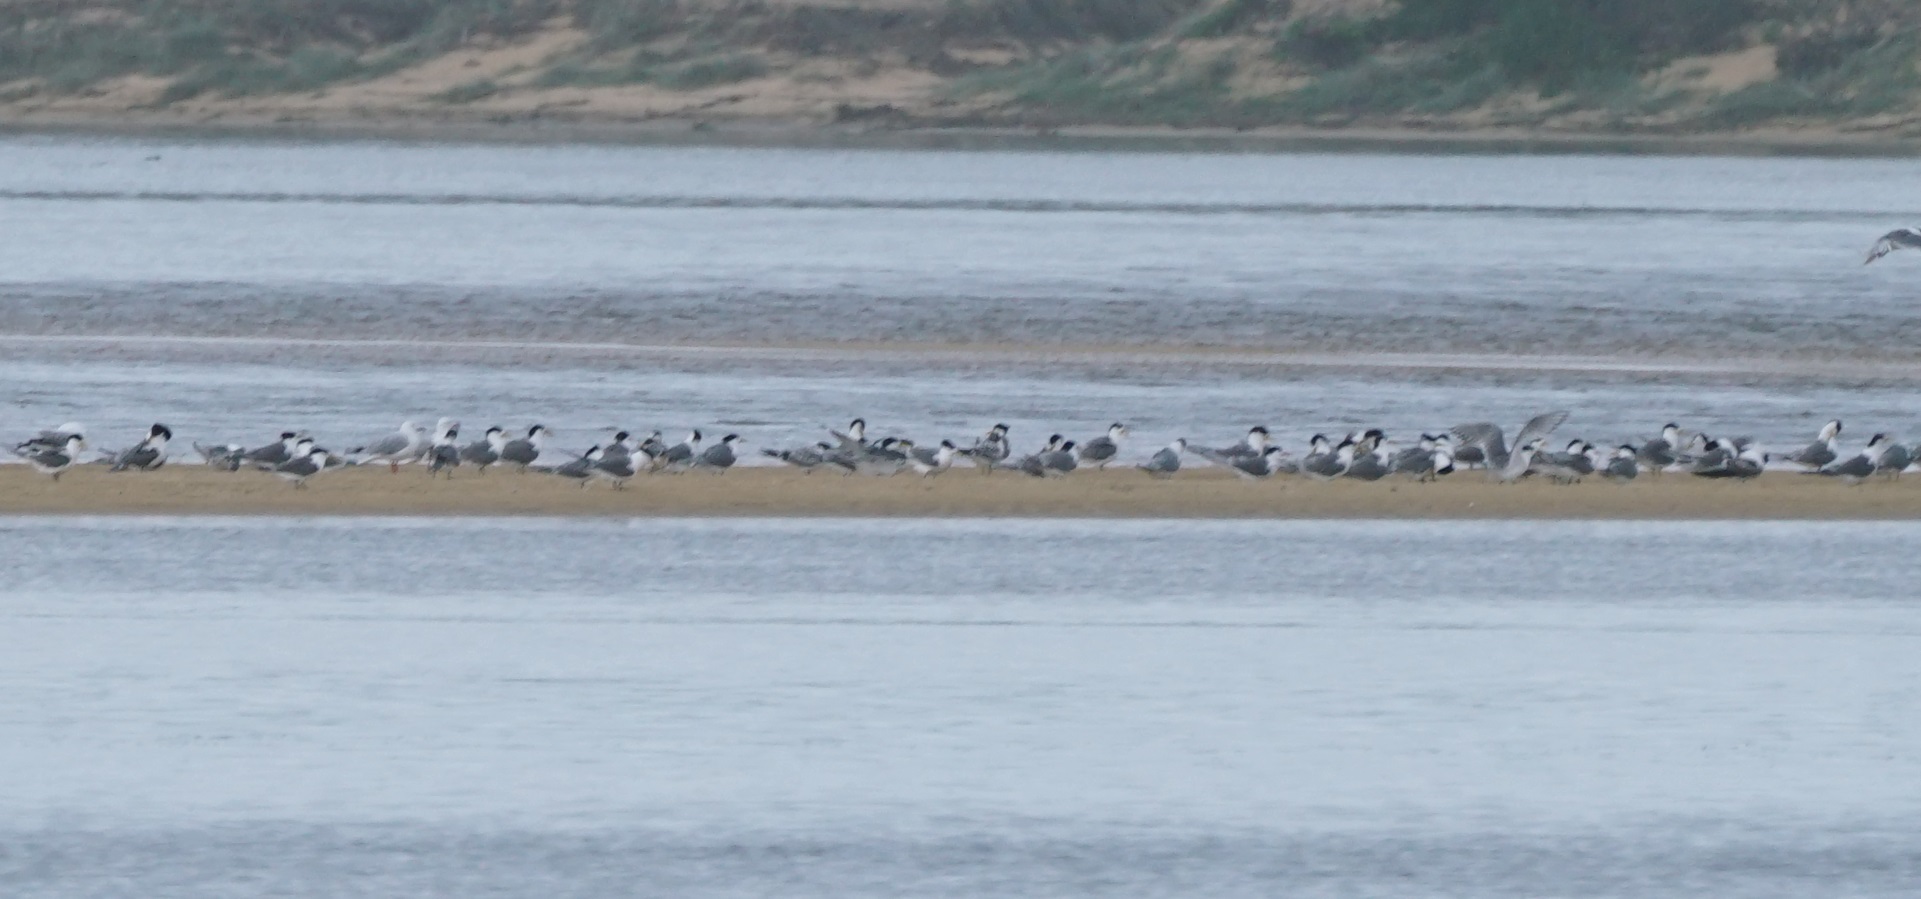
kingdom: Animalia
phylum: Chordata
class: Aves
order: Charadriiformes
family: Laridae
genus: Thalasseus
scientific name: Thalasseus bergii
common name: Greater crested tern
